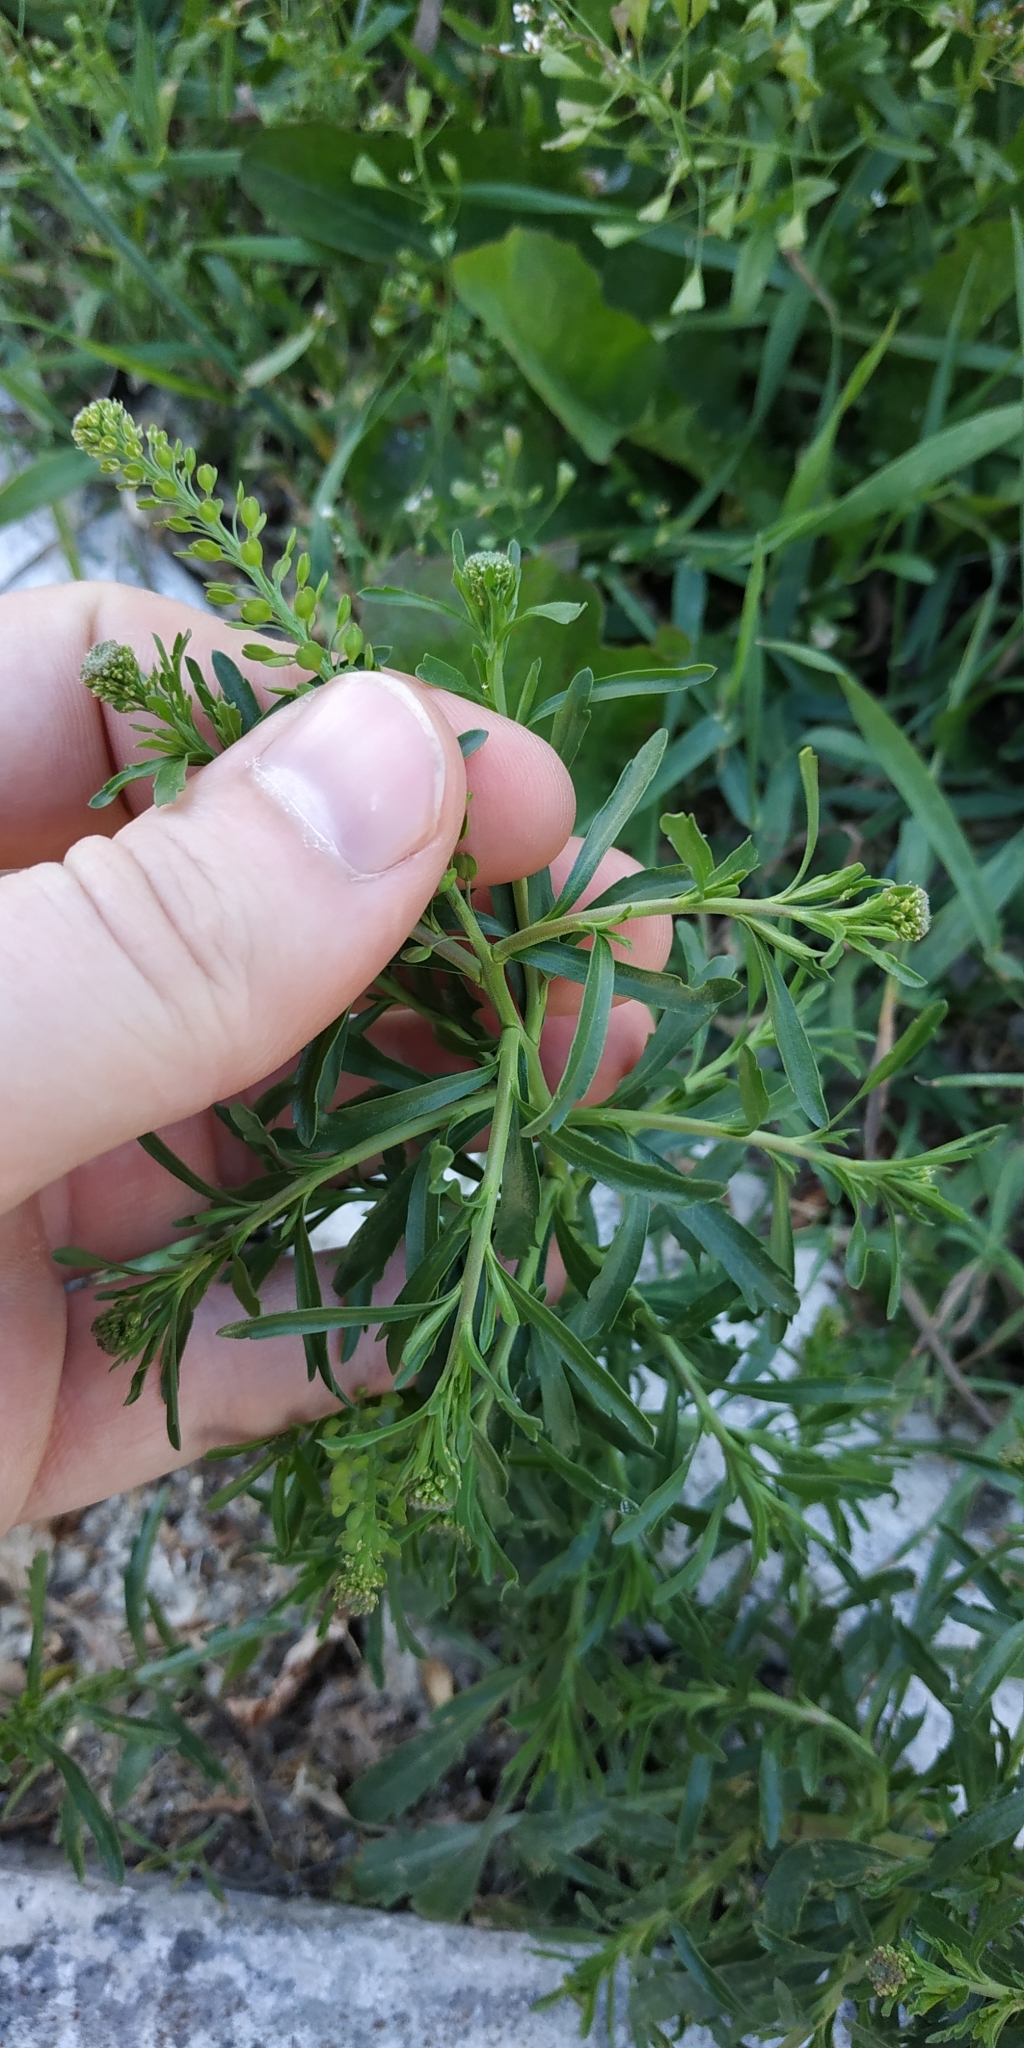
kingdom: Plantae
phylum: Tracheophyta
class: Magnoliopsida
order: Brassicales
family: Brassicaceae
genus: Lepidium
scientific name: Lepidium densiflorum
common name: Miner's pepperwort
